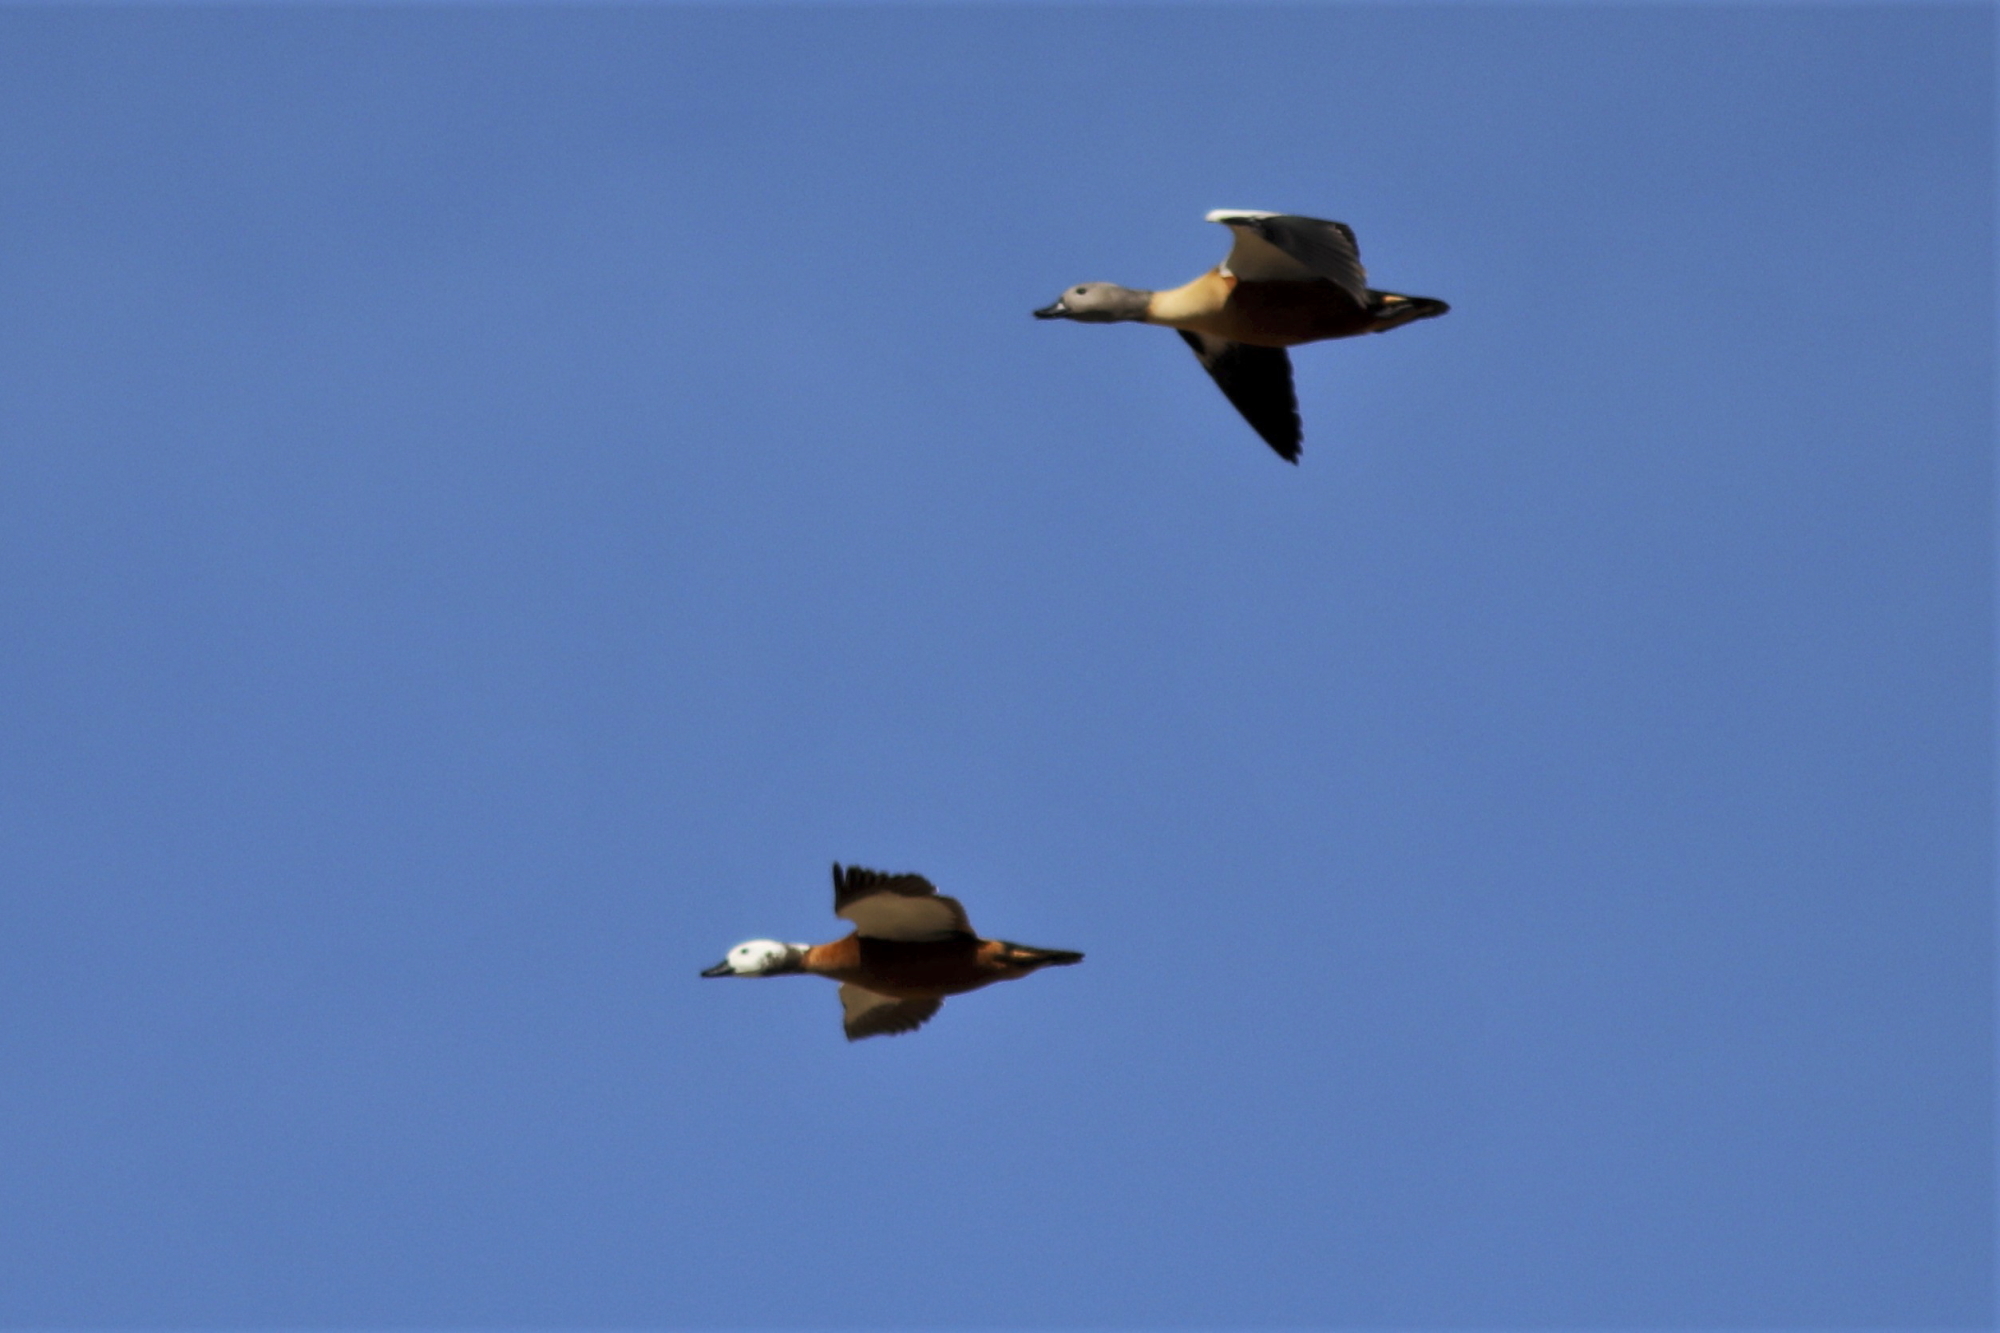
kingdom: Animalia
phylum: Chordata
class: Aves
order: Anseriformes
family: Anatidae
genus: Tadorna
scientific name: Tadorna cana
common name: South african shelduck
